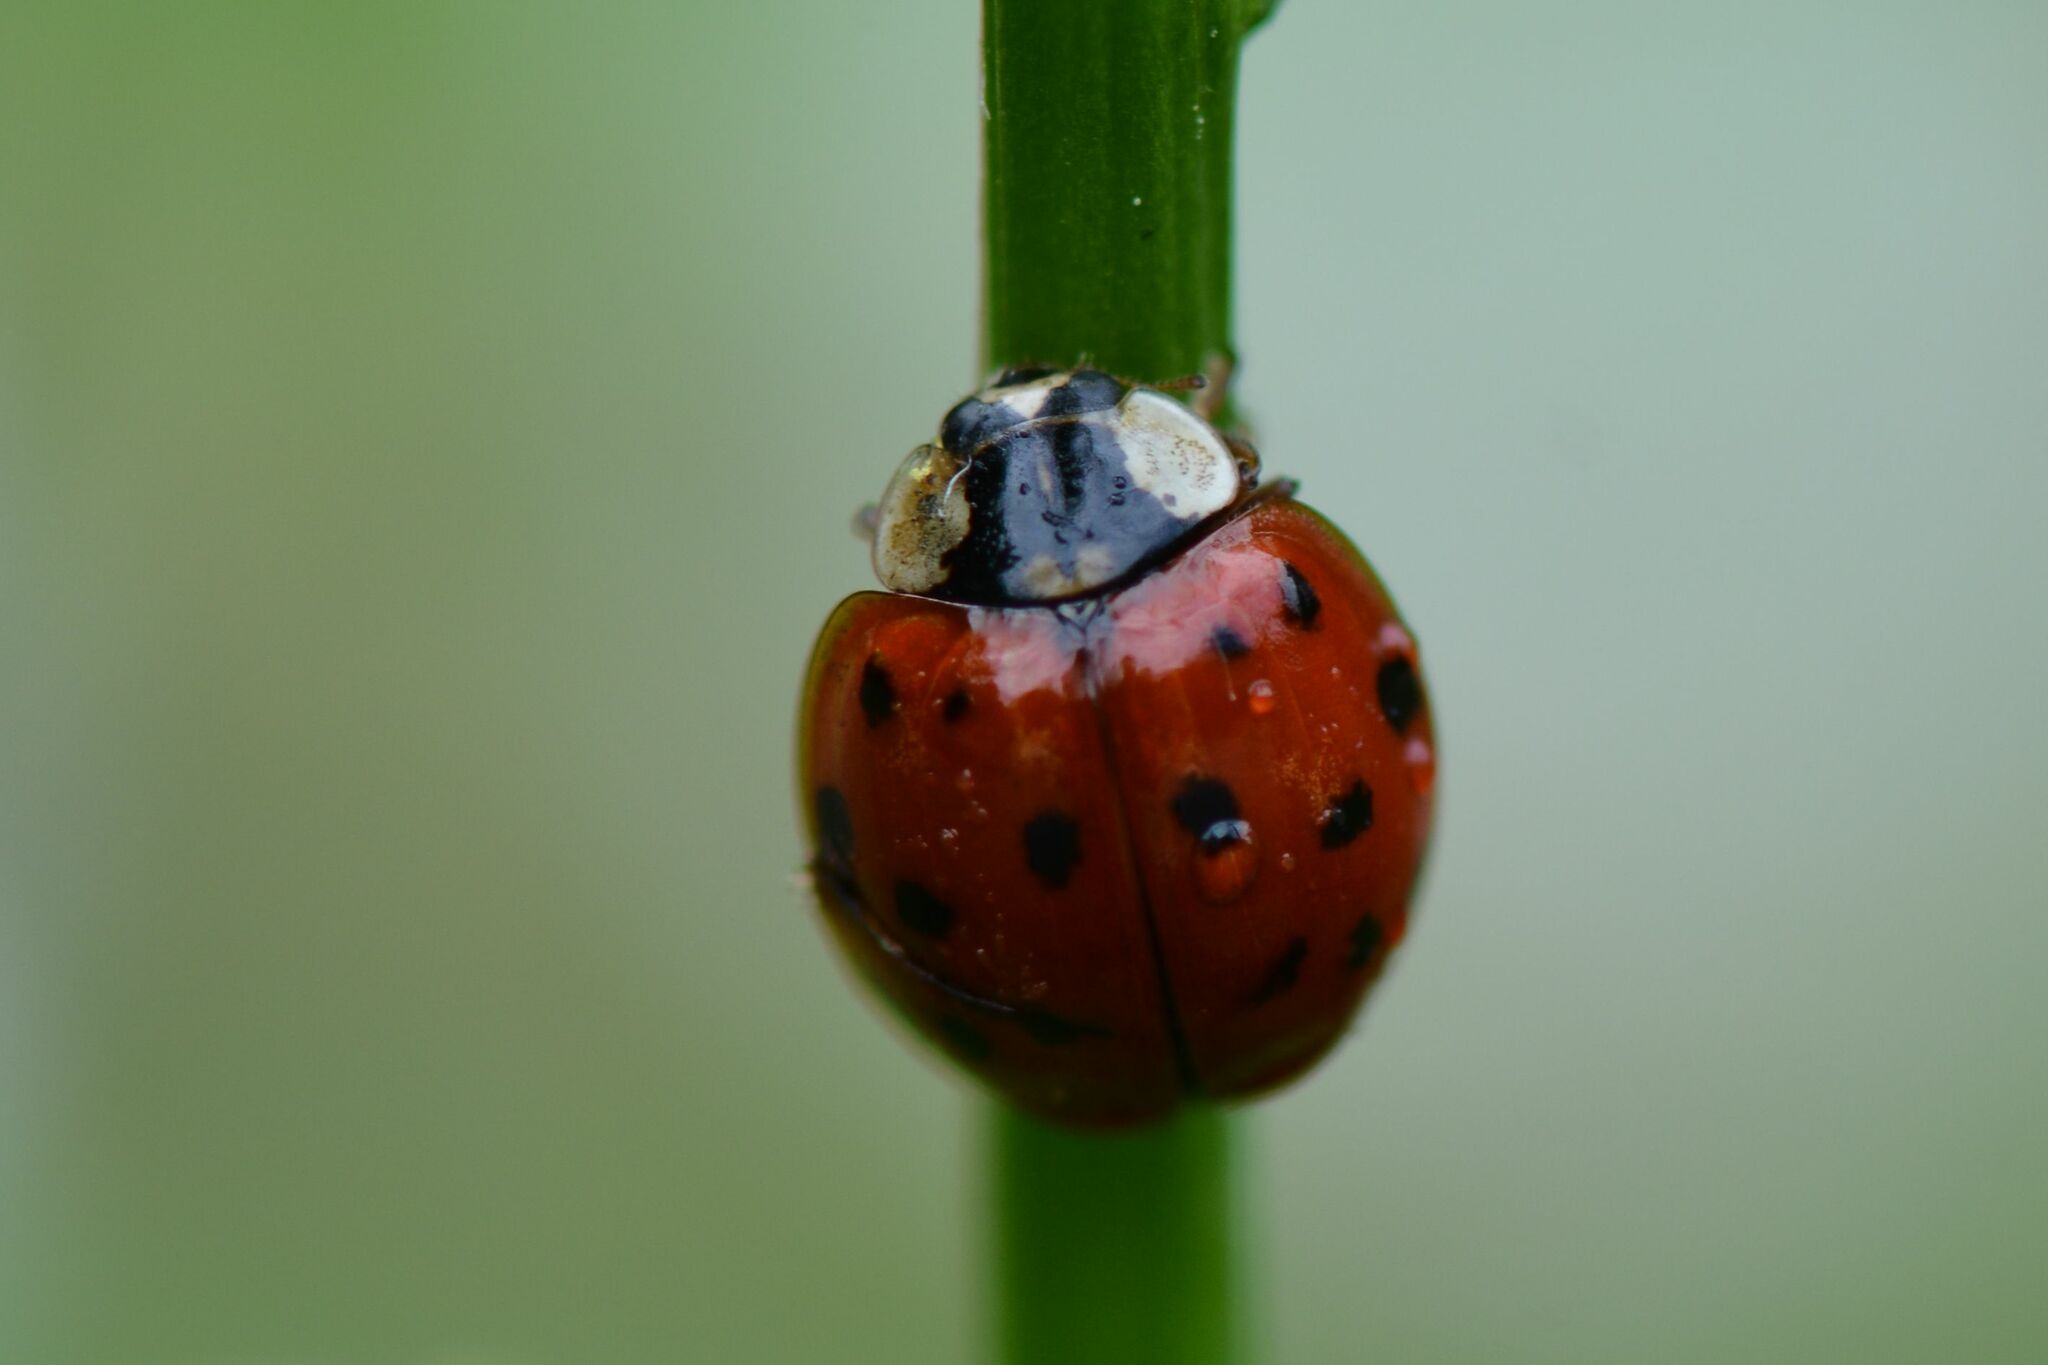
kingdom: Animalia
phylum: Arthropoda
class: Insecta
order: Coleoptera
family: Coccinellidae
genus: Harmonia
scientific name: Harmonia axyridis
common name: Harlequin ladybird
